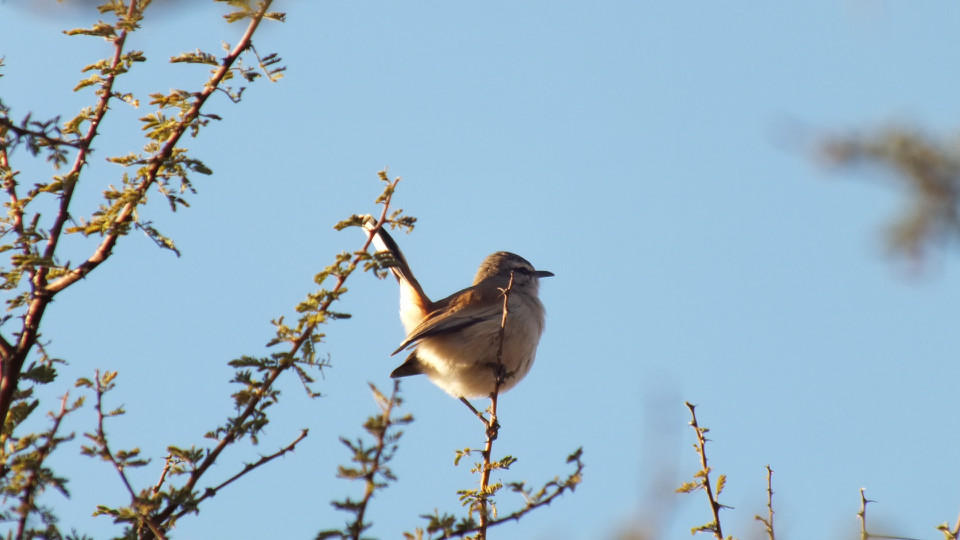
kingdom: Animalia
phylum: Chordata
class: Aves
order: Passeriformes
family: Muscicapidae
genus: Erythropygia
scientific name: Erythropygia paena
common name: Kalahari scrub robin
